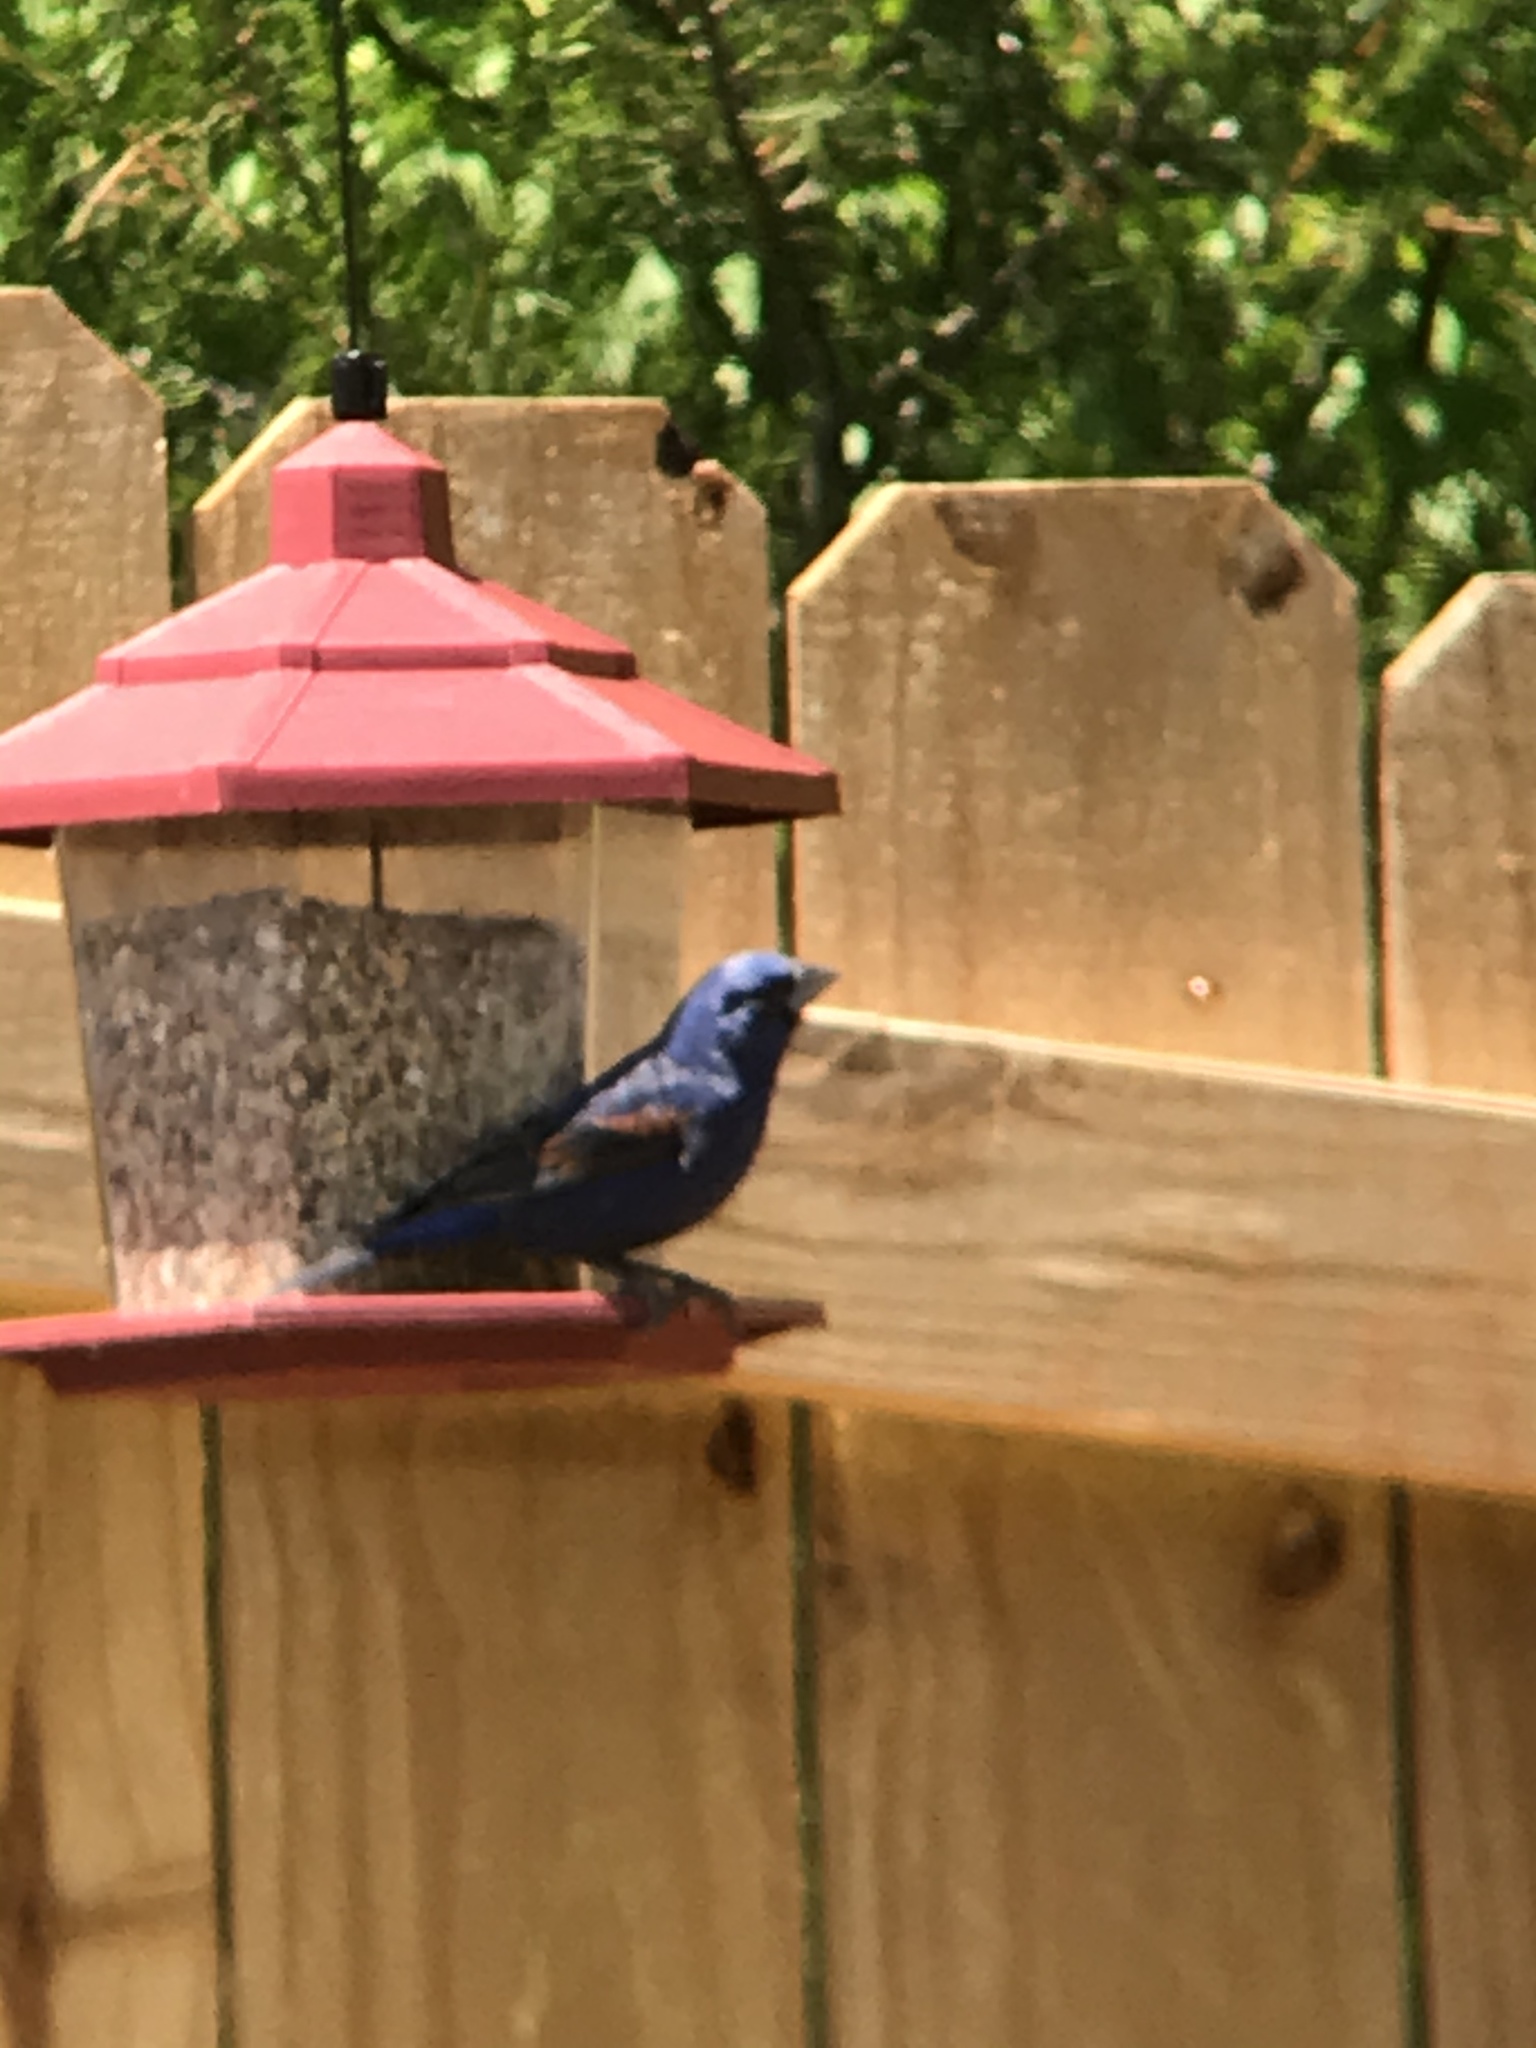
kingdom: Animalia
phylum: Chordata
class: Aves
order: Passeriformes
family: Cardinalidae
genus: Passerina
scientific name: Passerina caerulea
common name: Blue grosbeak
